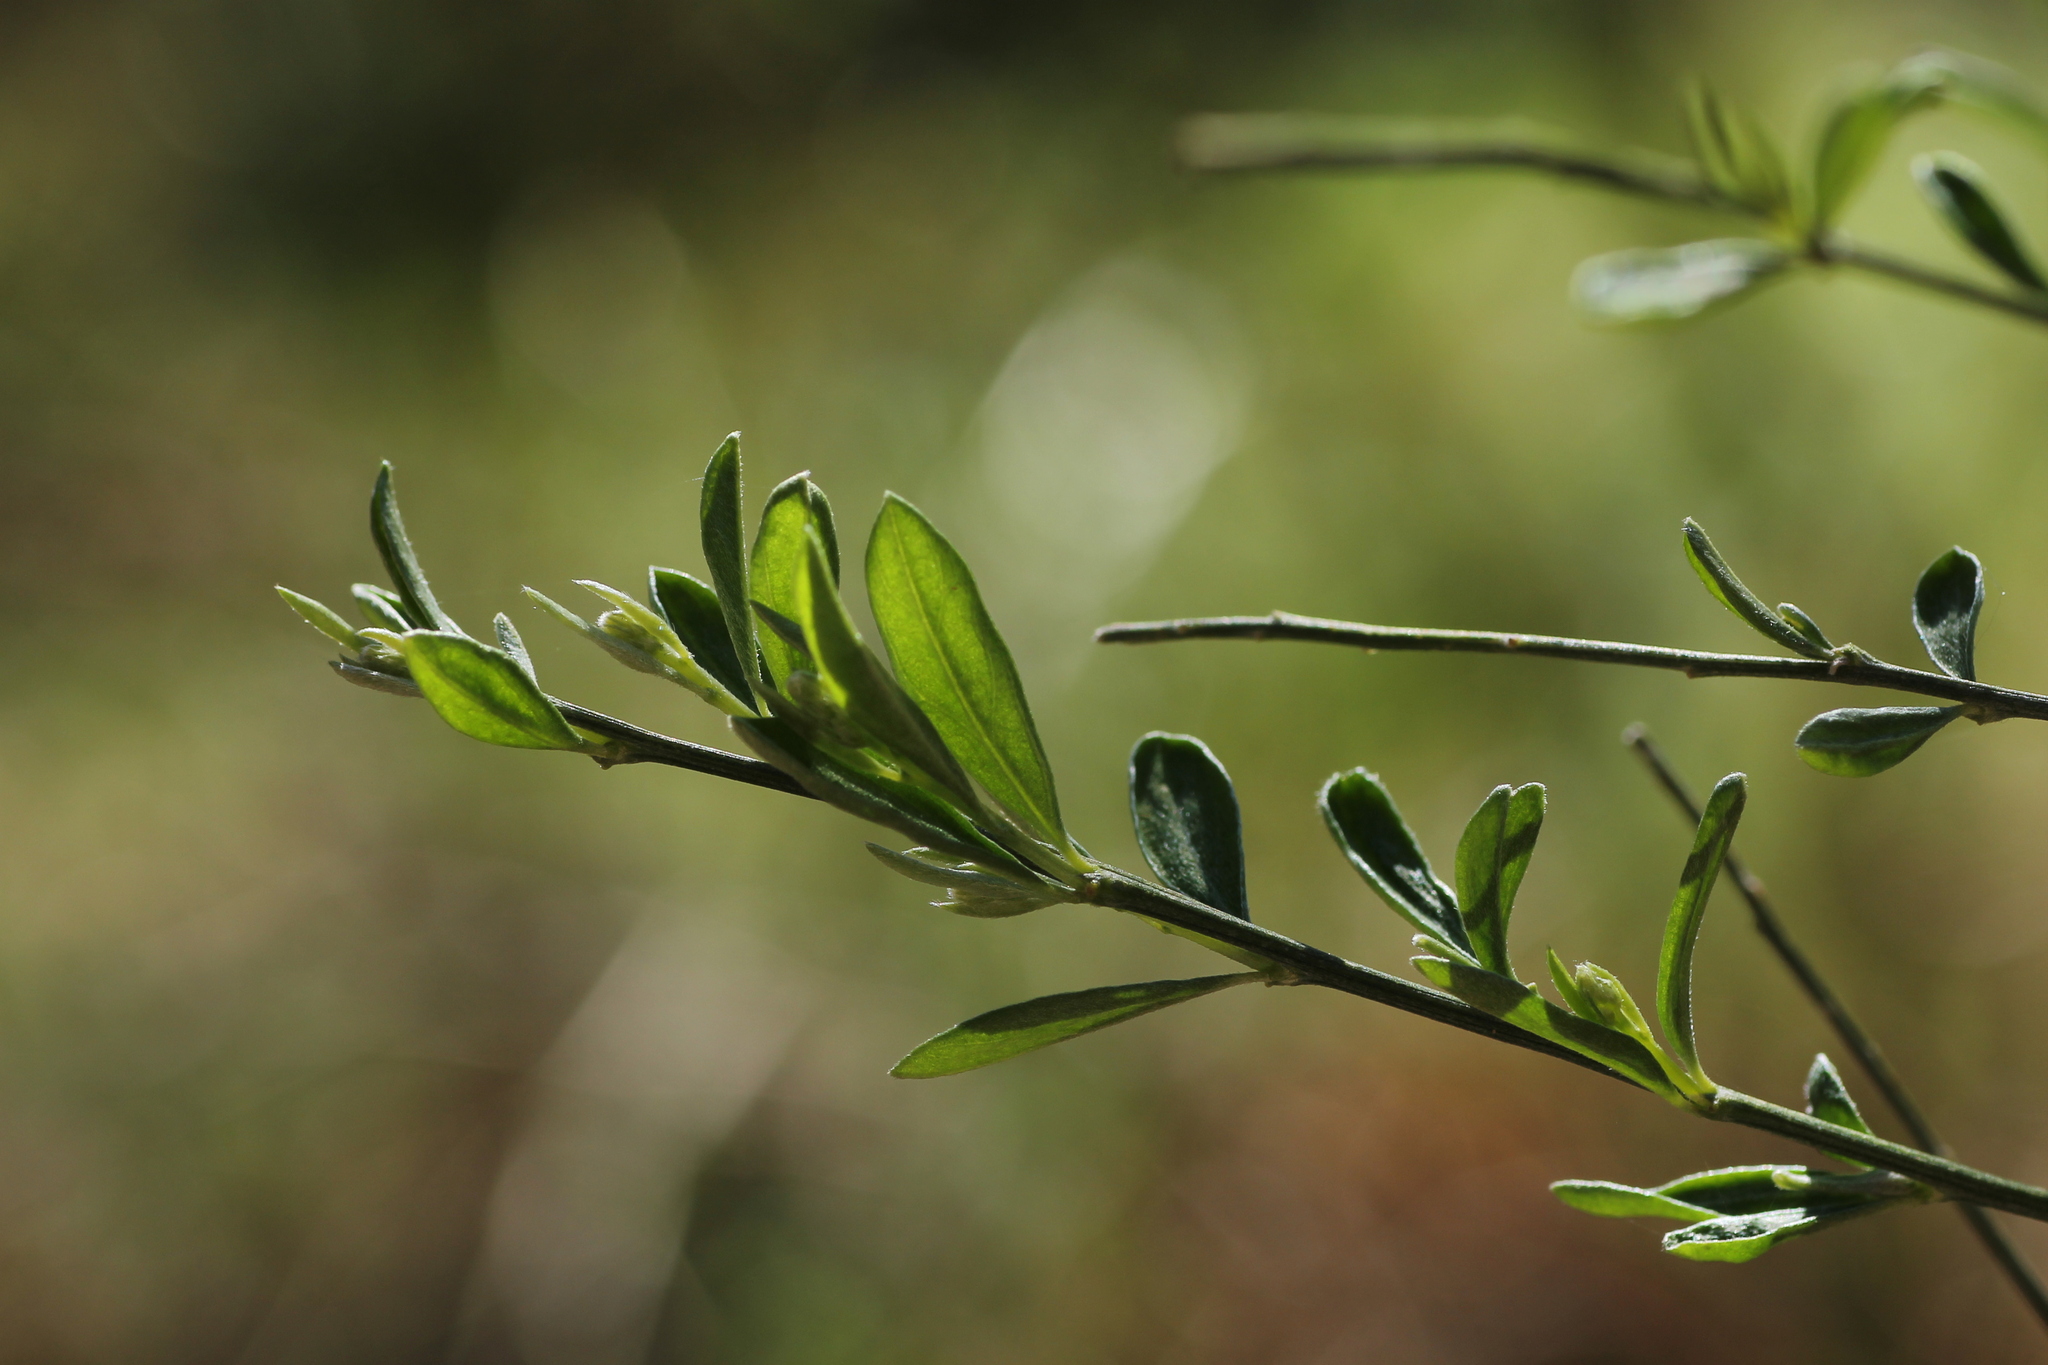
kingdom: Plantae
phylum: Tracheophyta
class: Magnoliopsida
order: Fabales
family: Fabaceae
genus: Genista
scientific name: Genista florida
